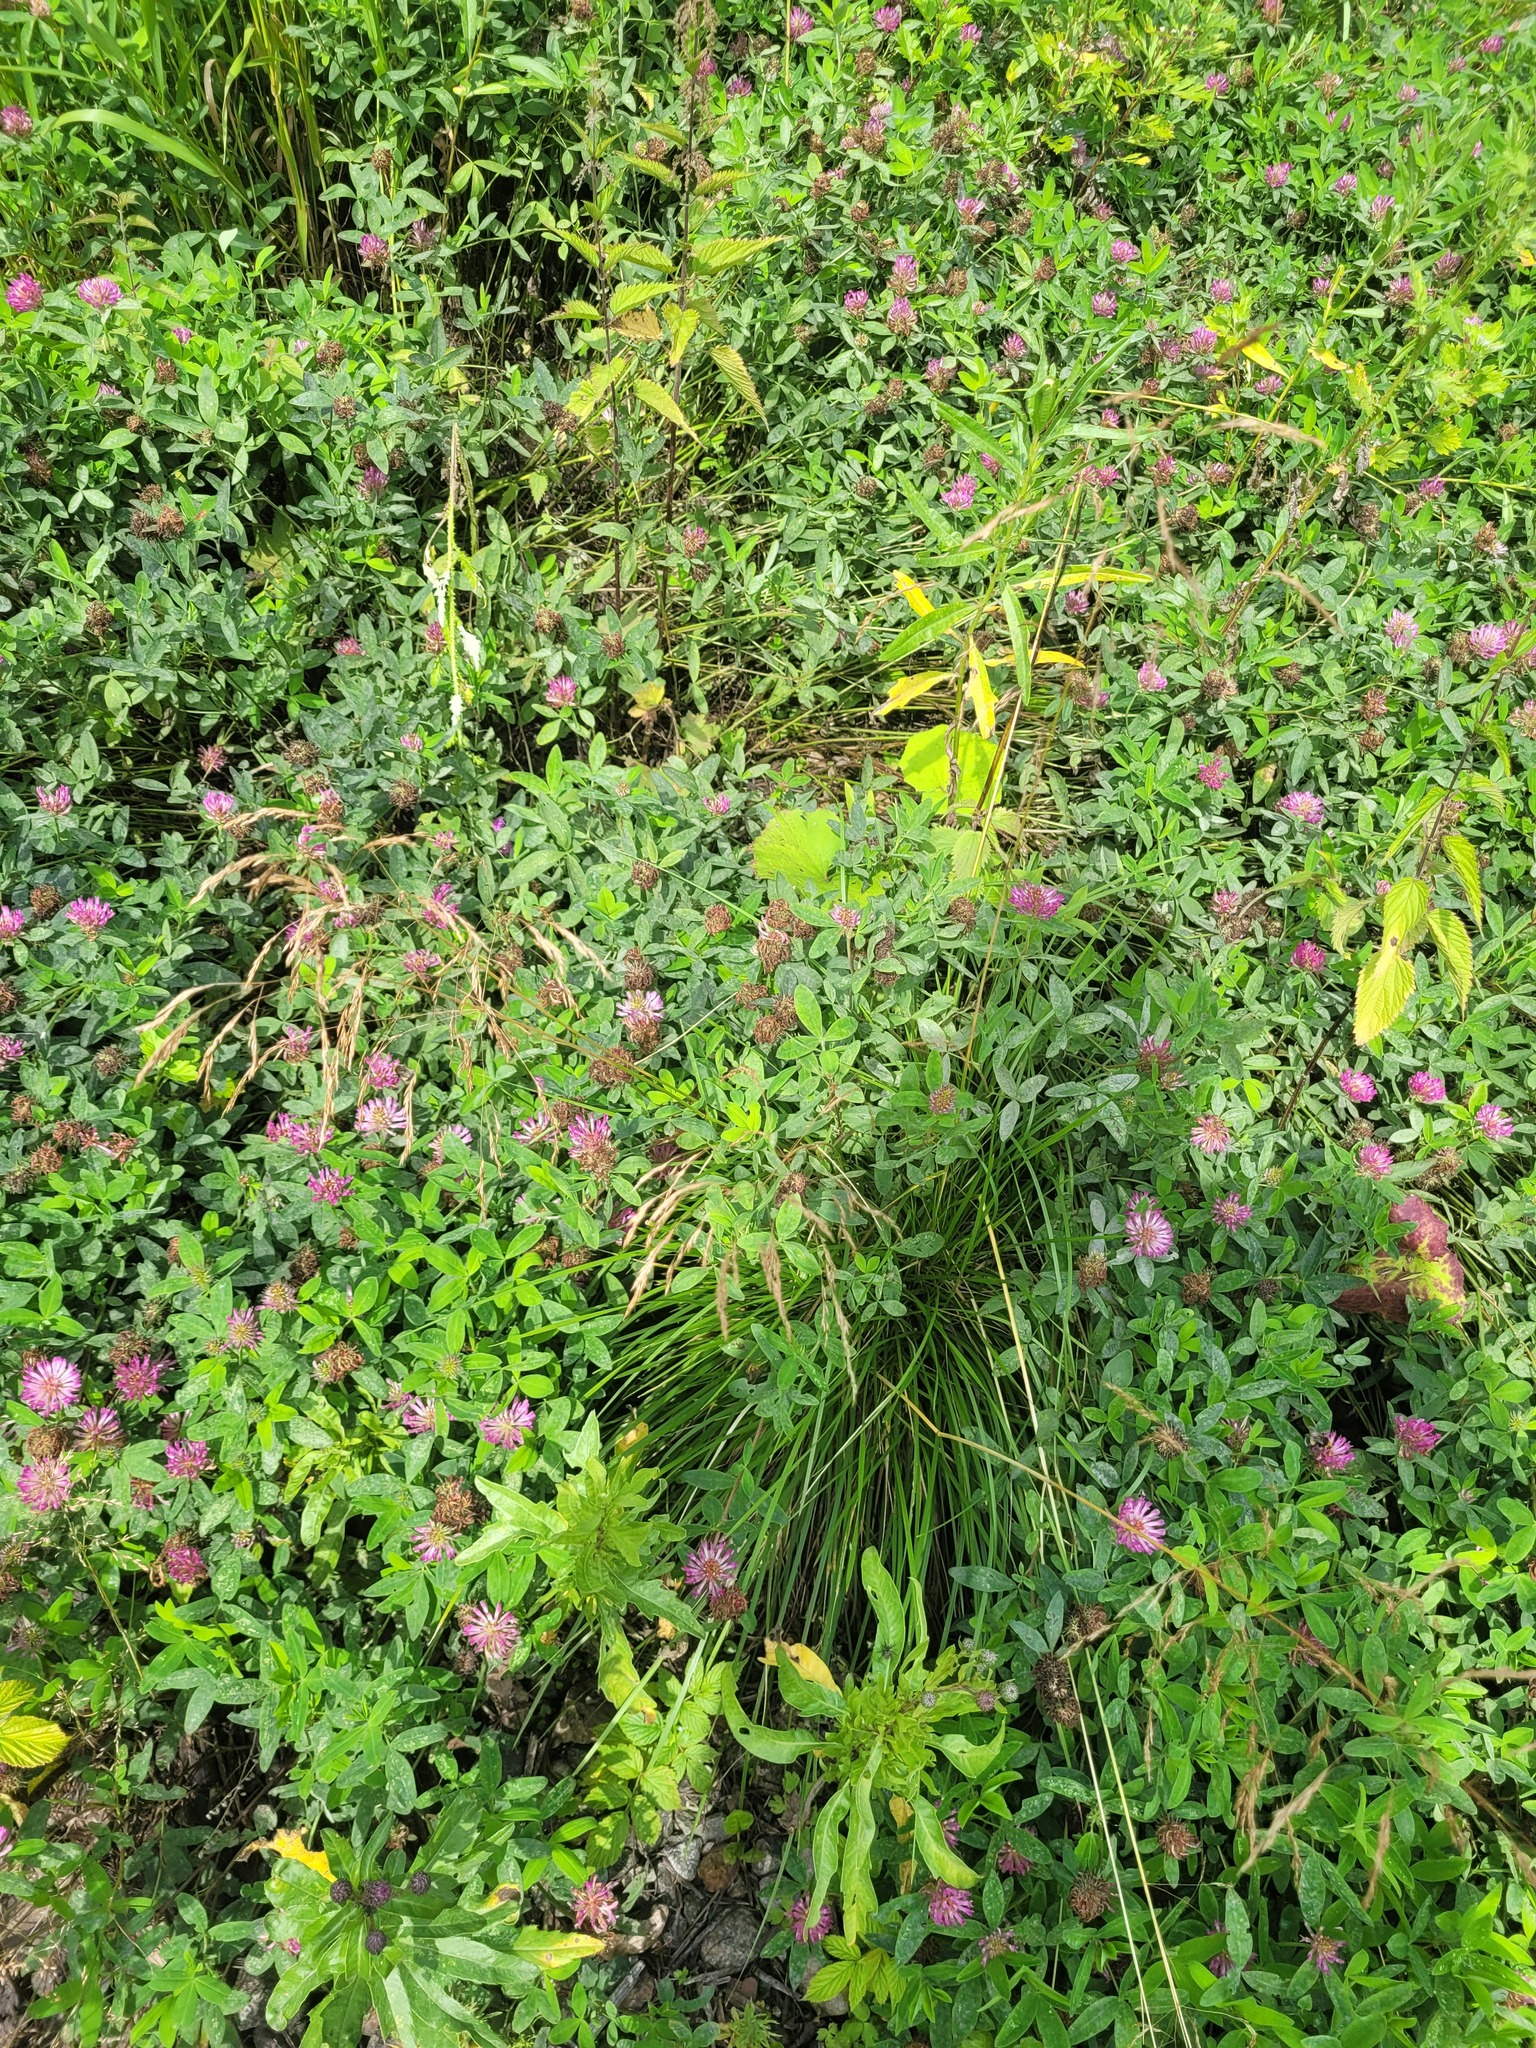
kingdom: Plantae
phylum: Tracheophyta
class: Liliopsida
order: Poales
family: Poaceae
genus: Deschampsia
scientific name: Deschampsia cespitosa
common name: Tufted hair-grass
